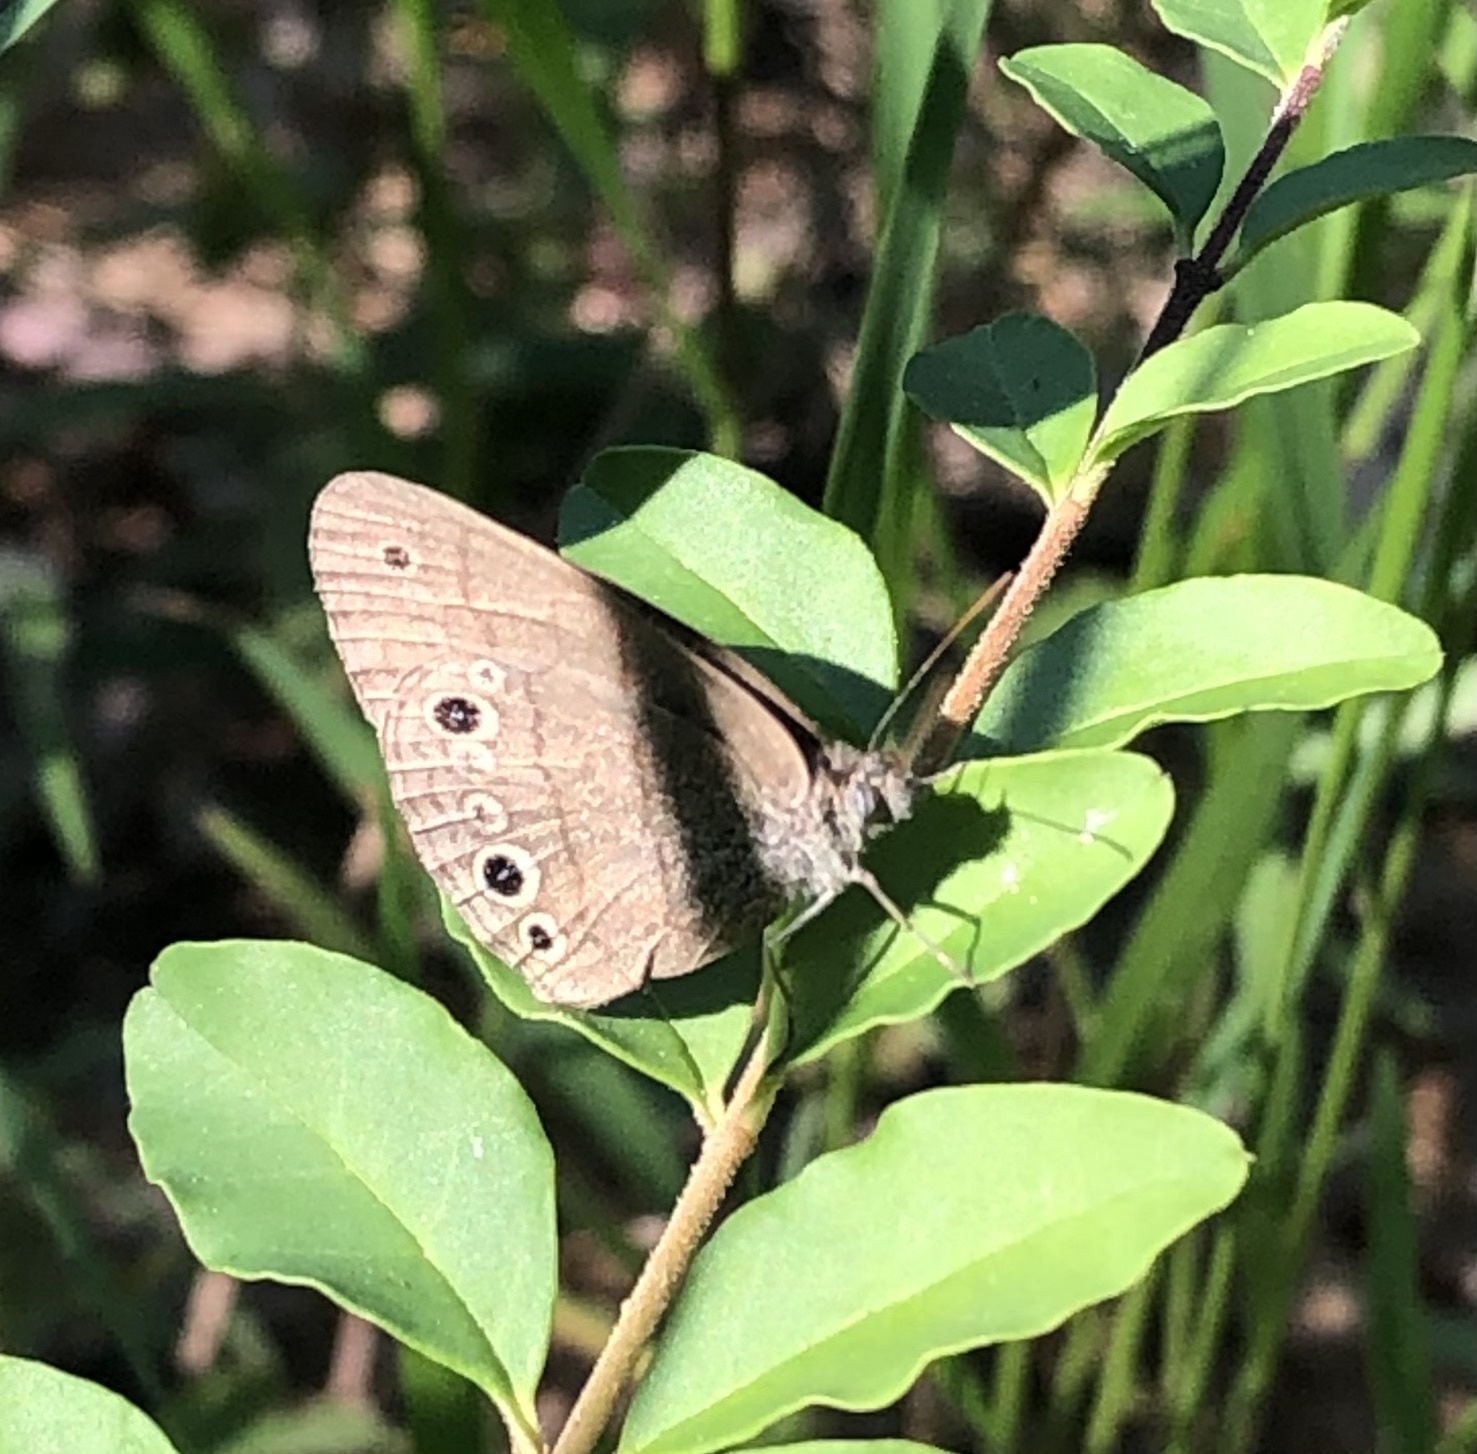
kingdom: Animalia
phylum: Arthropoda
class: Insecta
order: Lepidoptera
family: Nymphalidae
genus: Hermeuptychia
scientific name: Hermeuptychia hermes
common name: Hermes satyr
